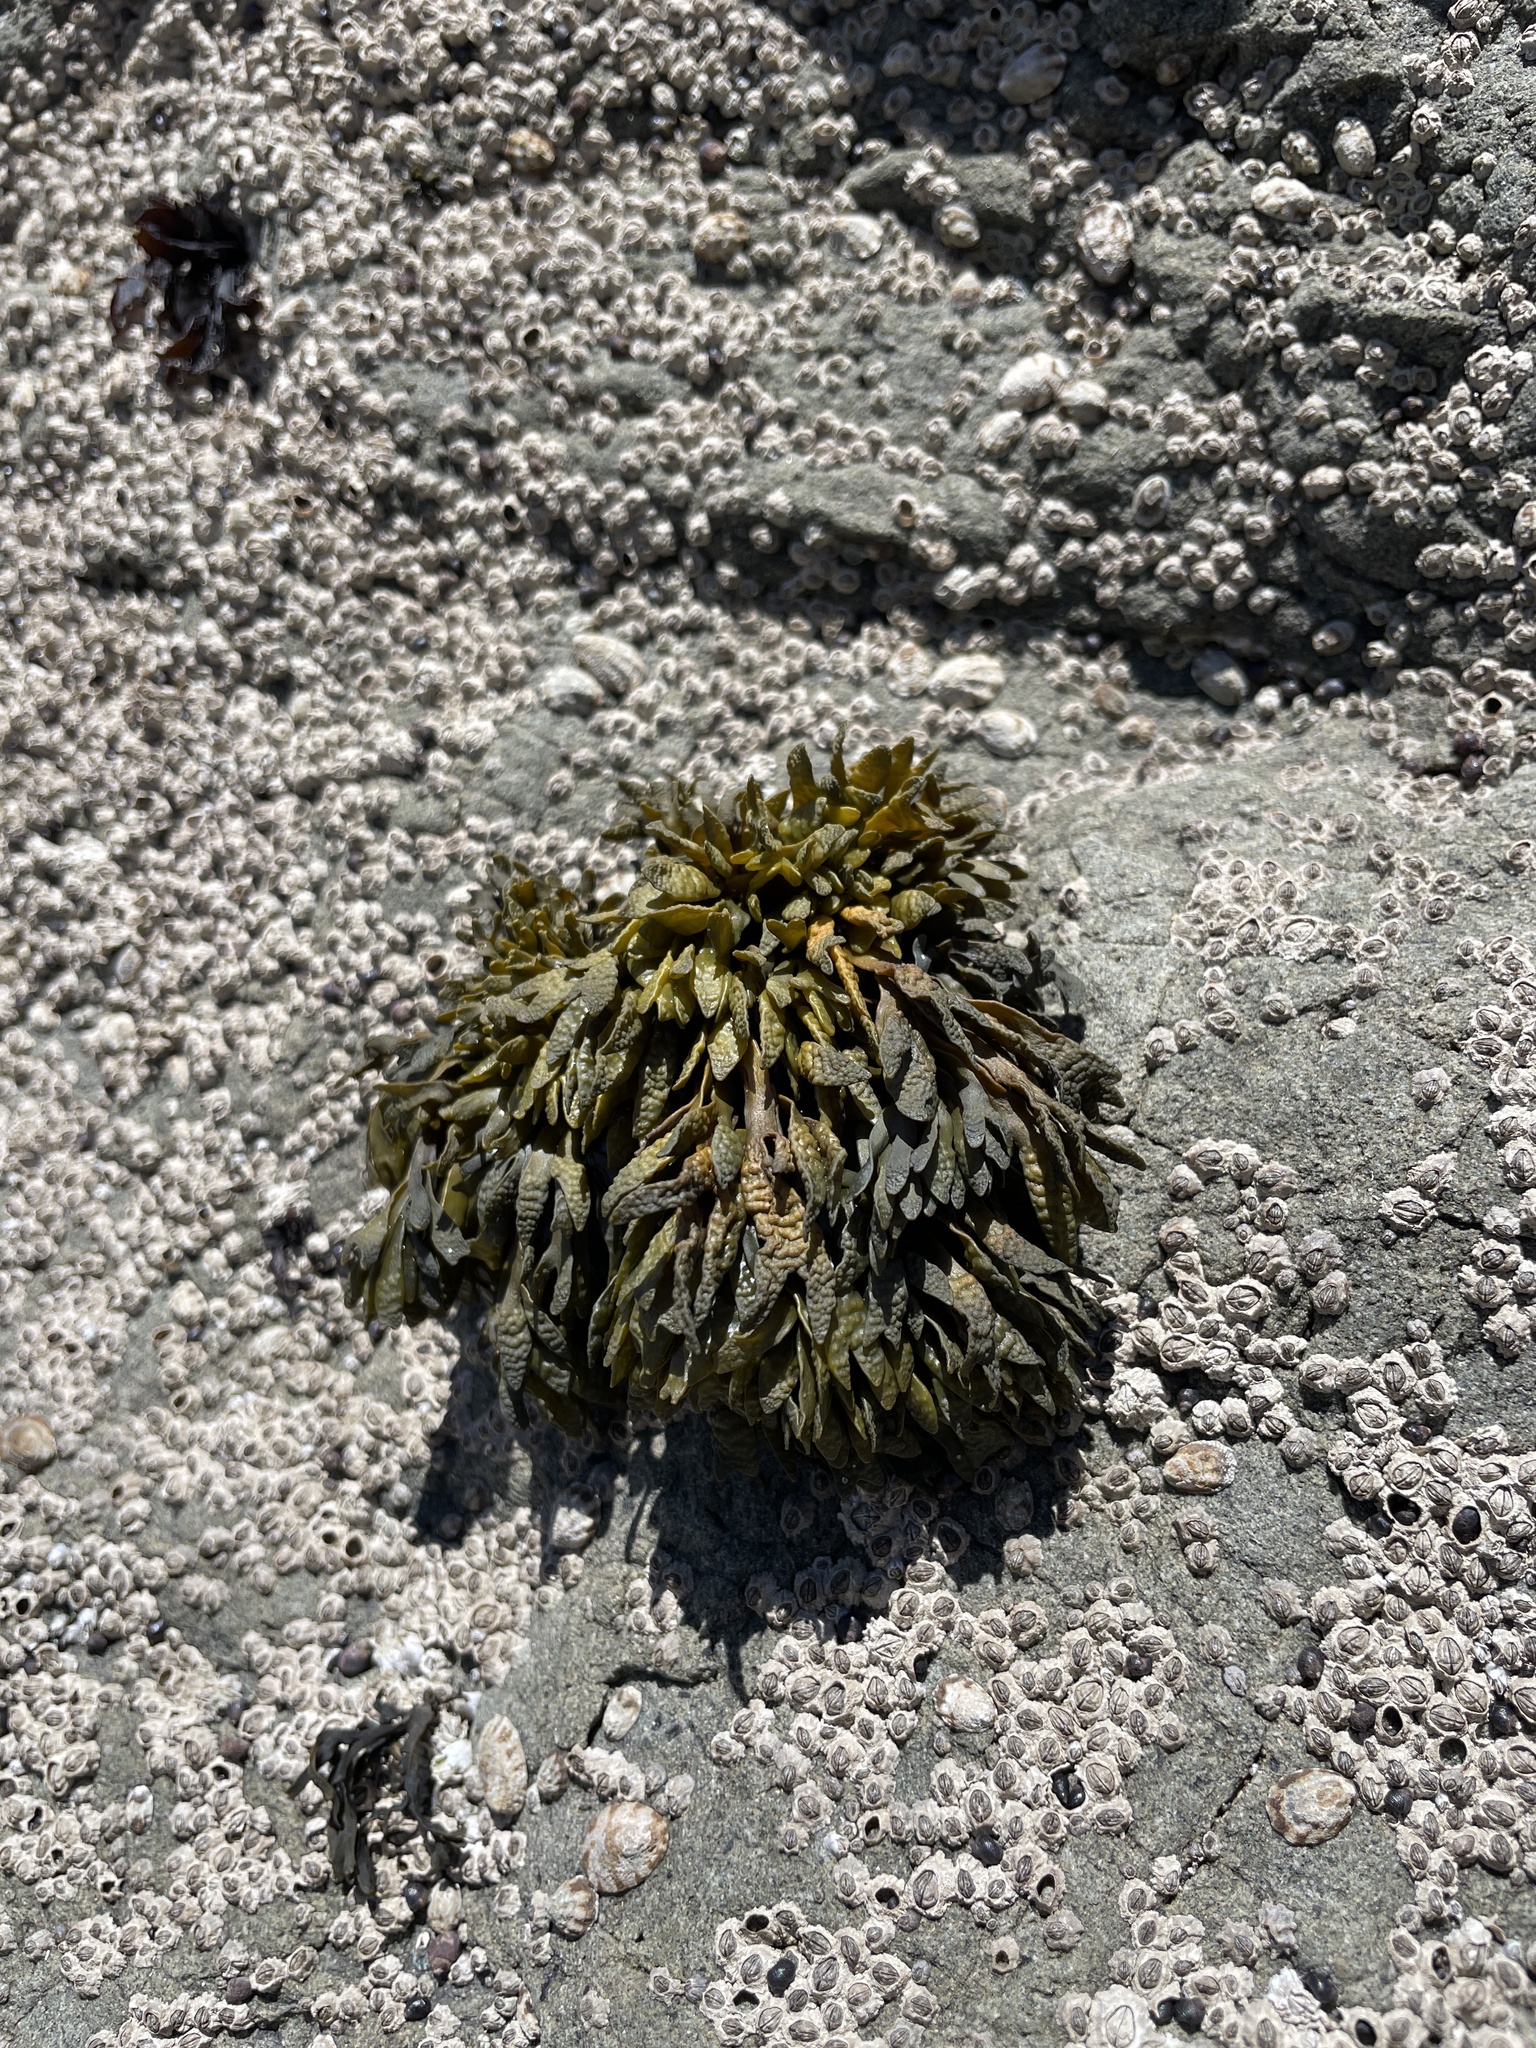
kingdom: Chromista
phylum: Ochrophyta
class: Phaeophyceae
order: Fucales
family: Fucaceae
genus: Pelvetiopsis
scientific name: Pelvetiopsis limitata
